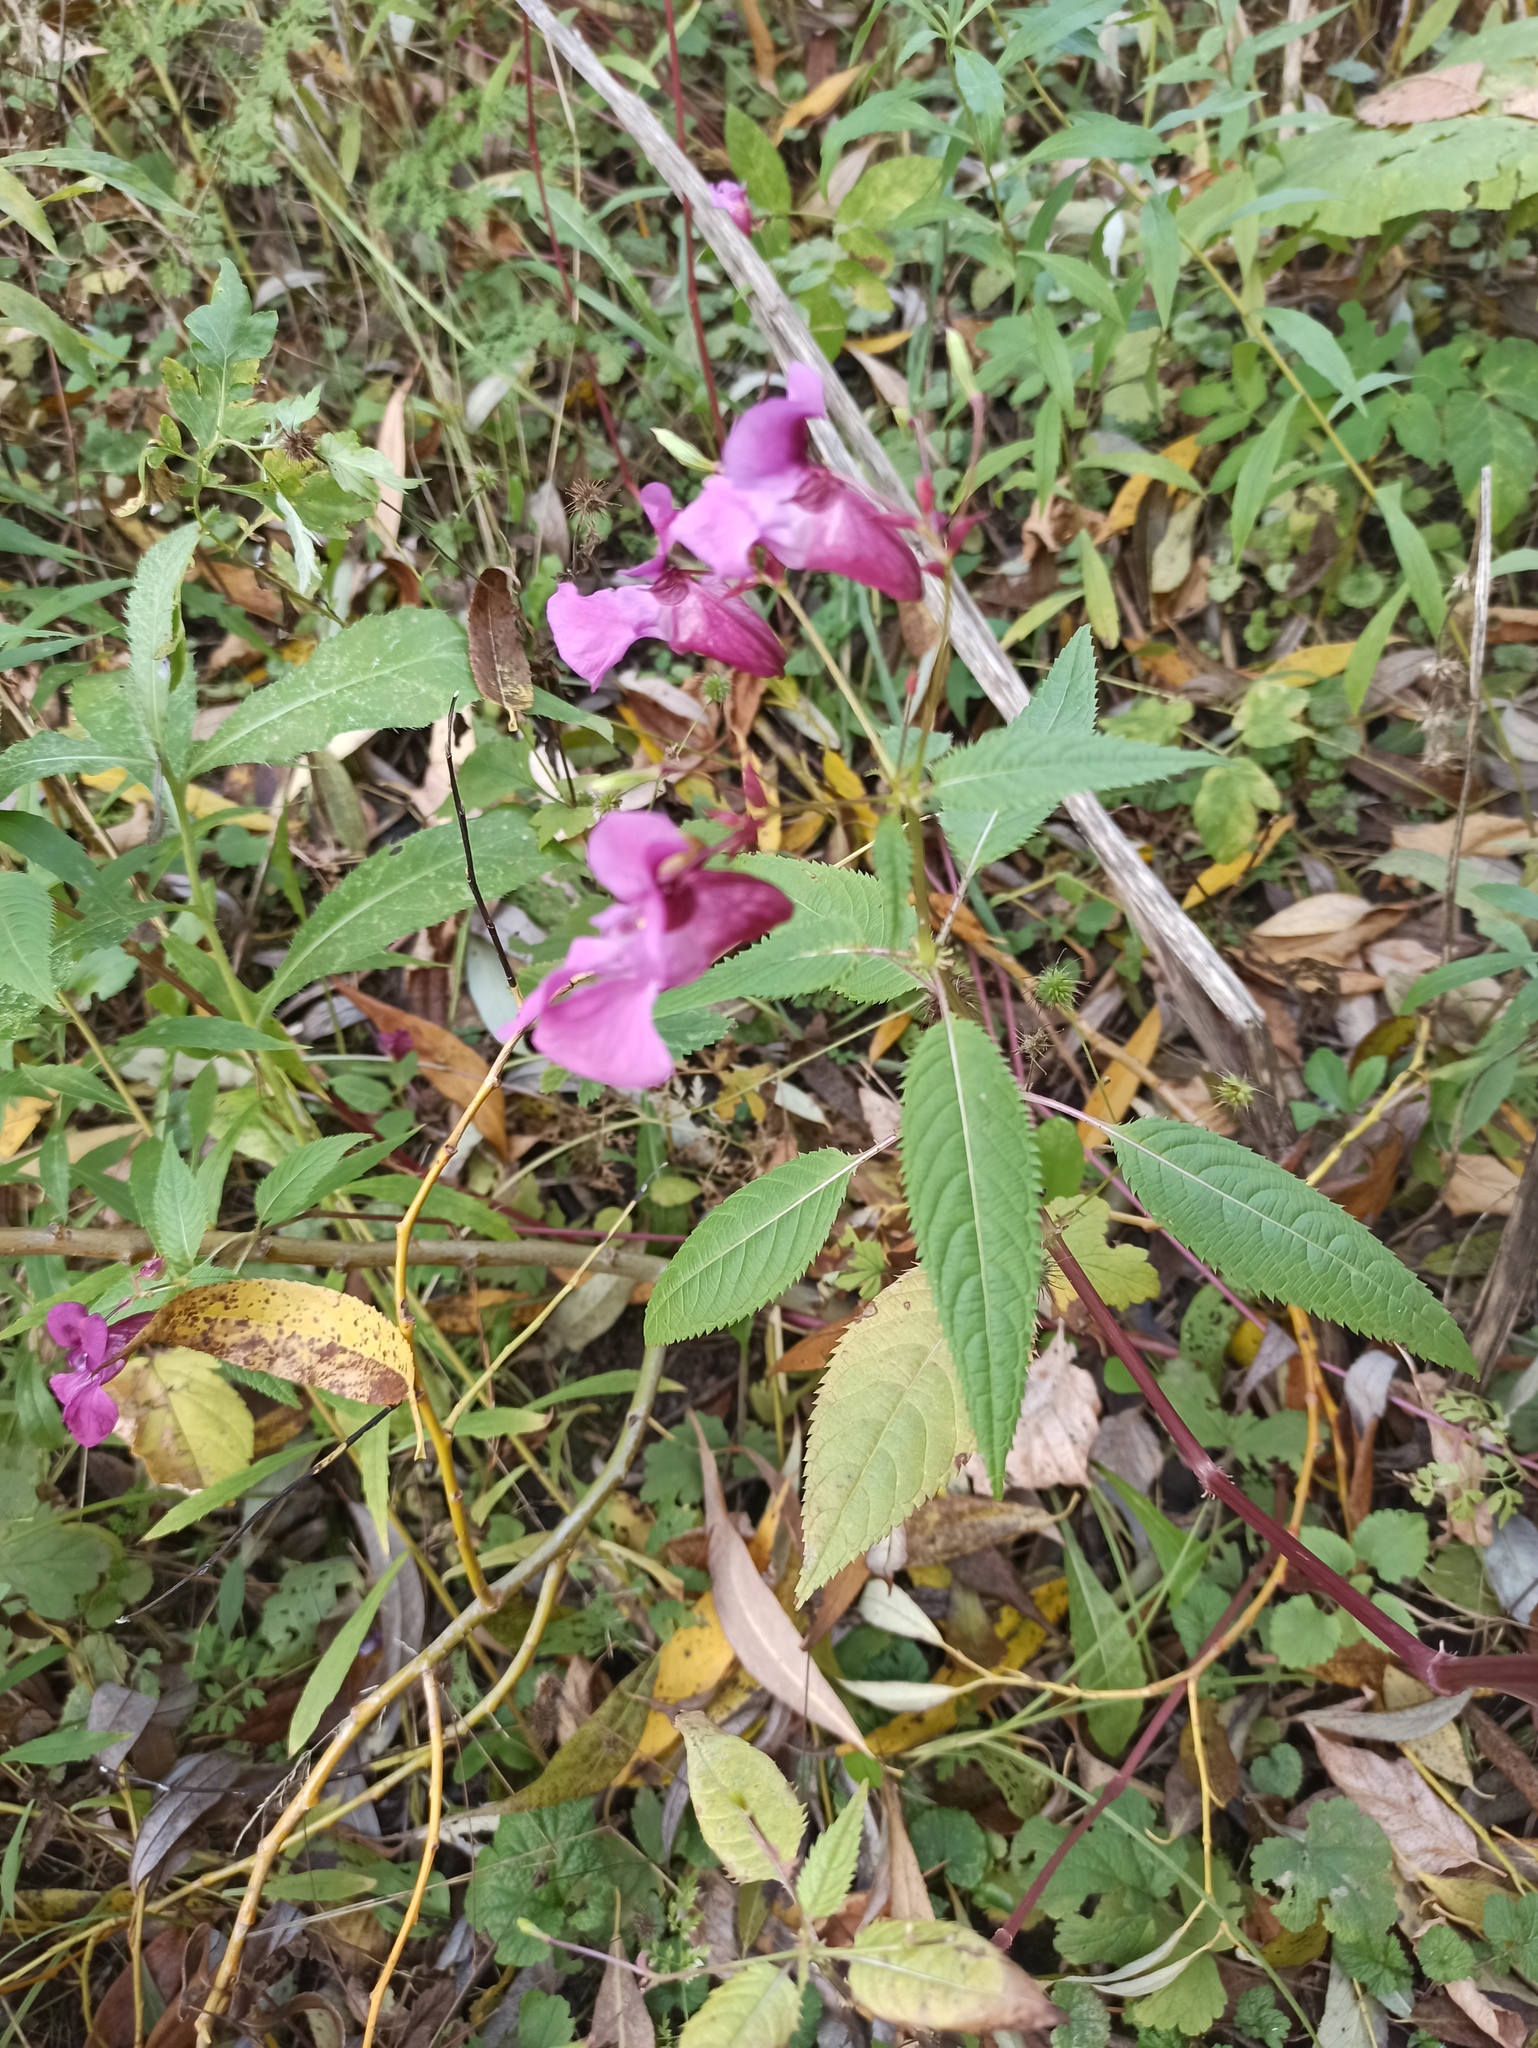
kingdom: Plantae
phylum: Tracheophyta
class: Magnoliopsida
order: Ericales
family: Balsaminaceae
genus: Impatiens
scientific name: Impatiens glandulifera
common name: Himalayan balsam
